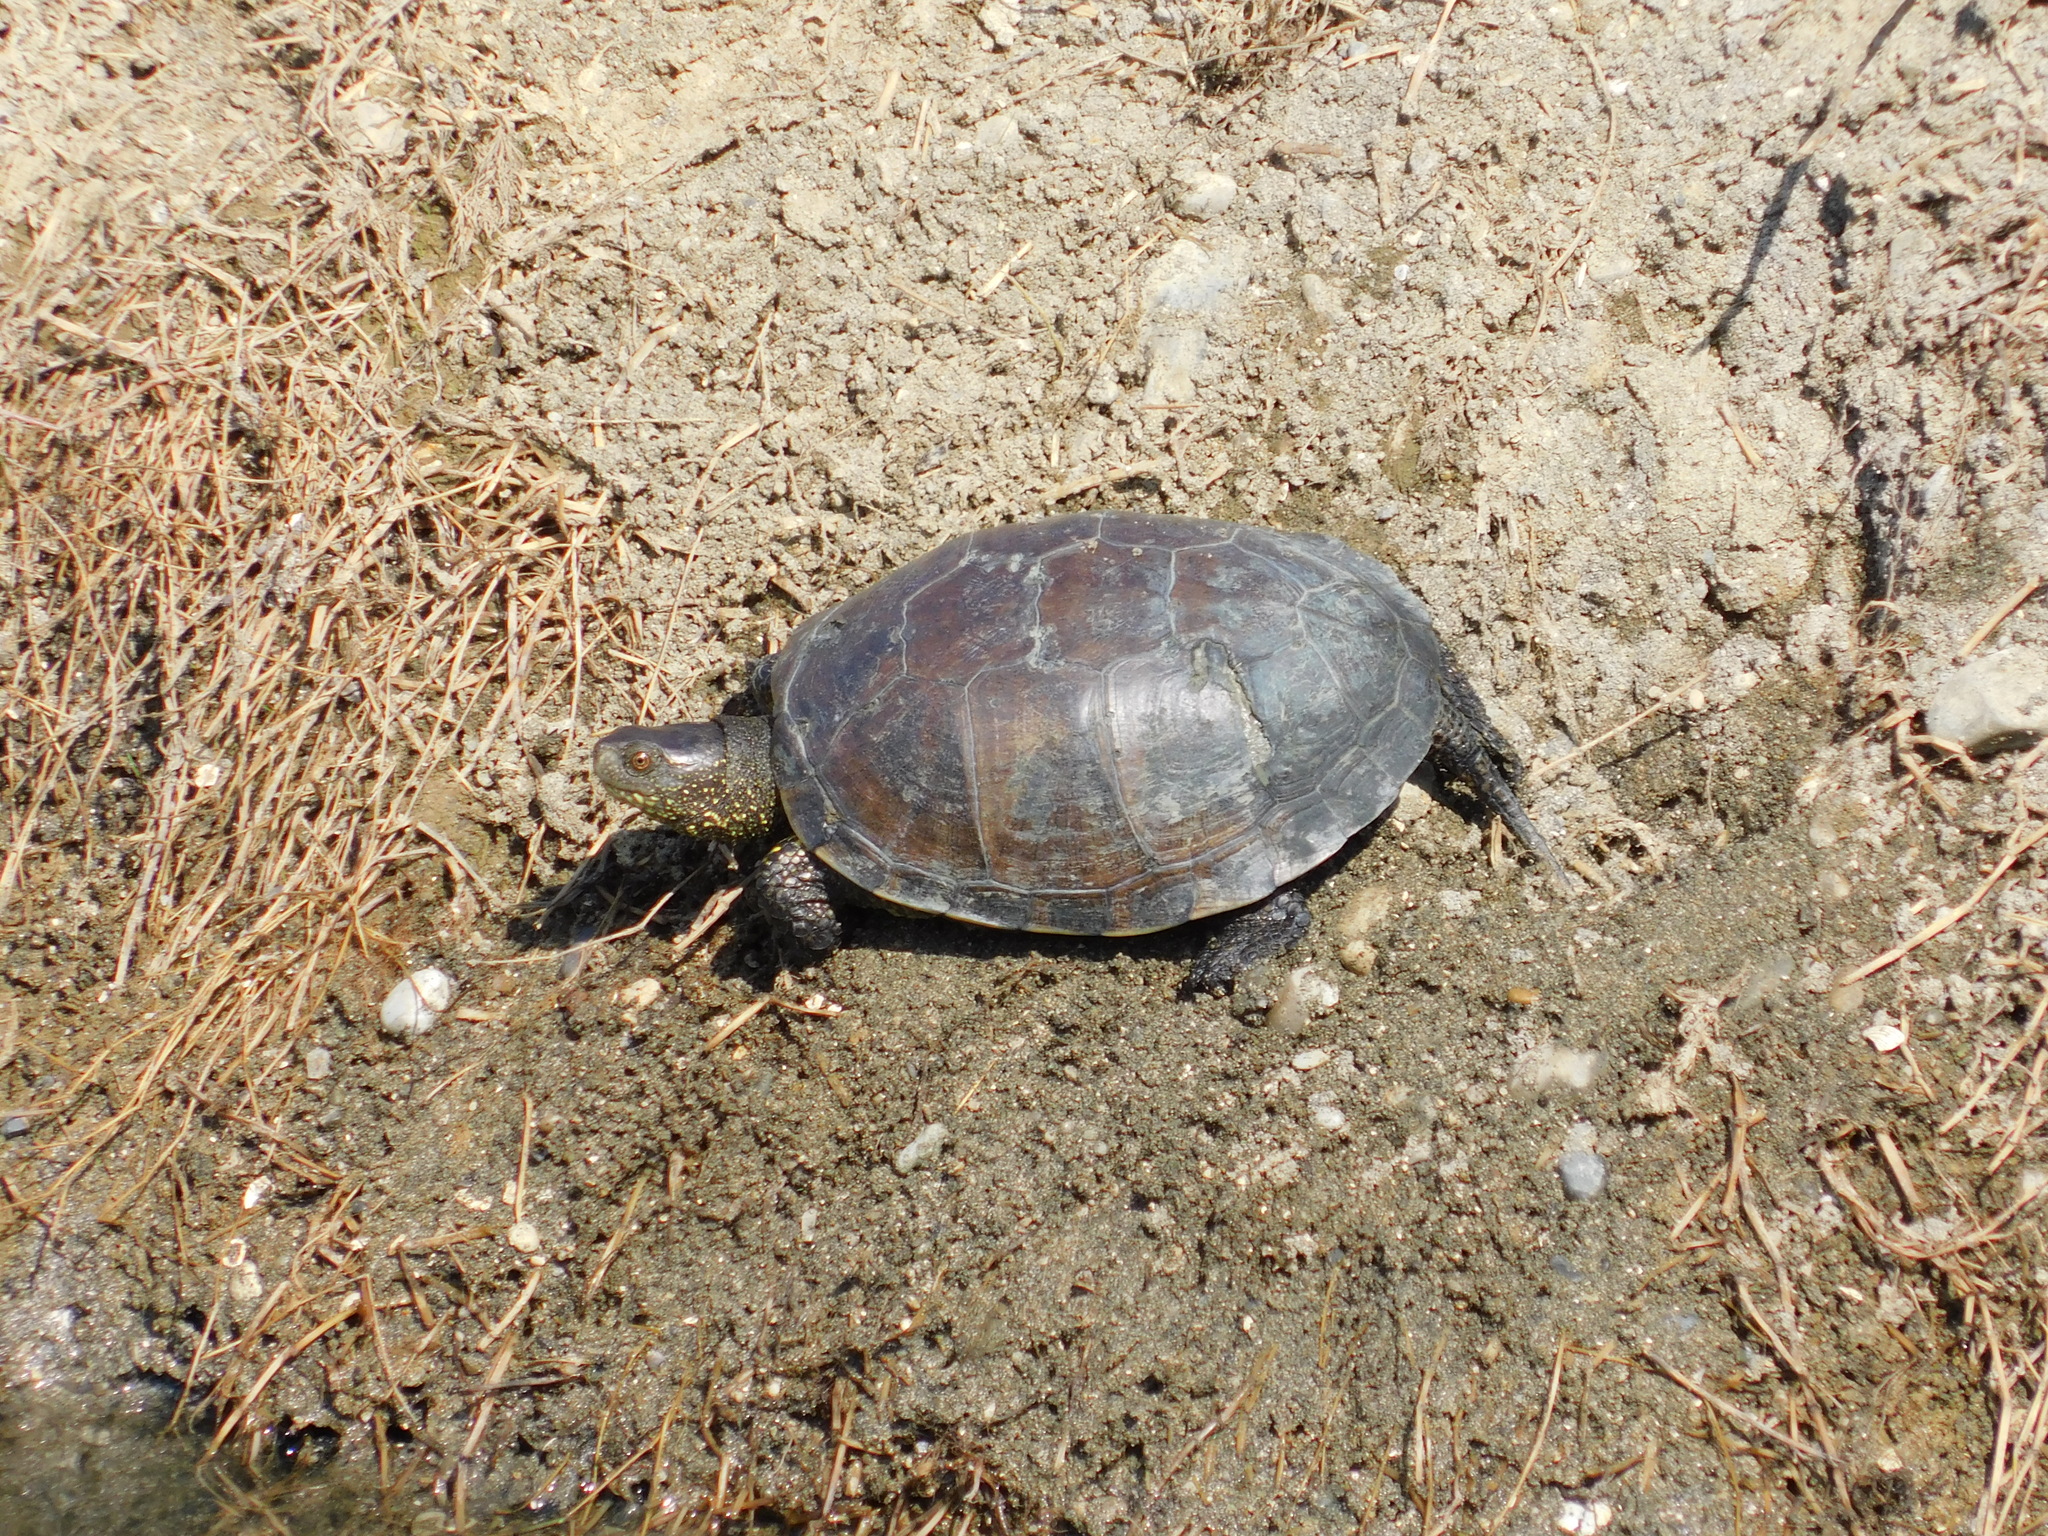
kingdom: Animalia
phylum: Chordata
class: Testudines
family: Emydidae
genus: Emys
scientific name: Emys orbicularis
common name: European pond turtle
